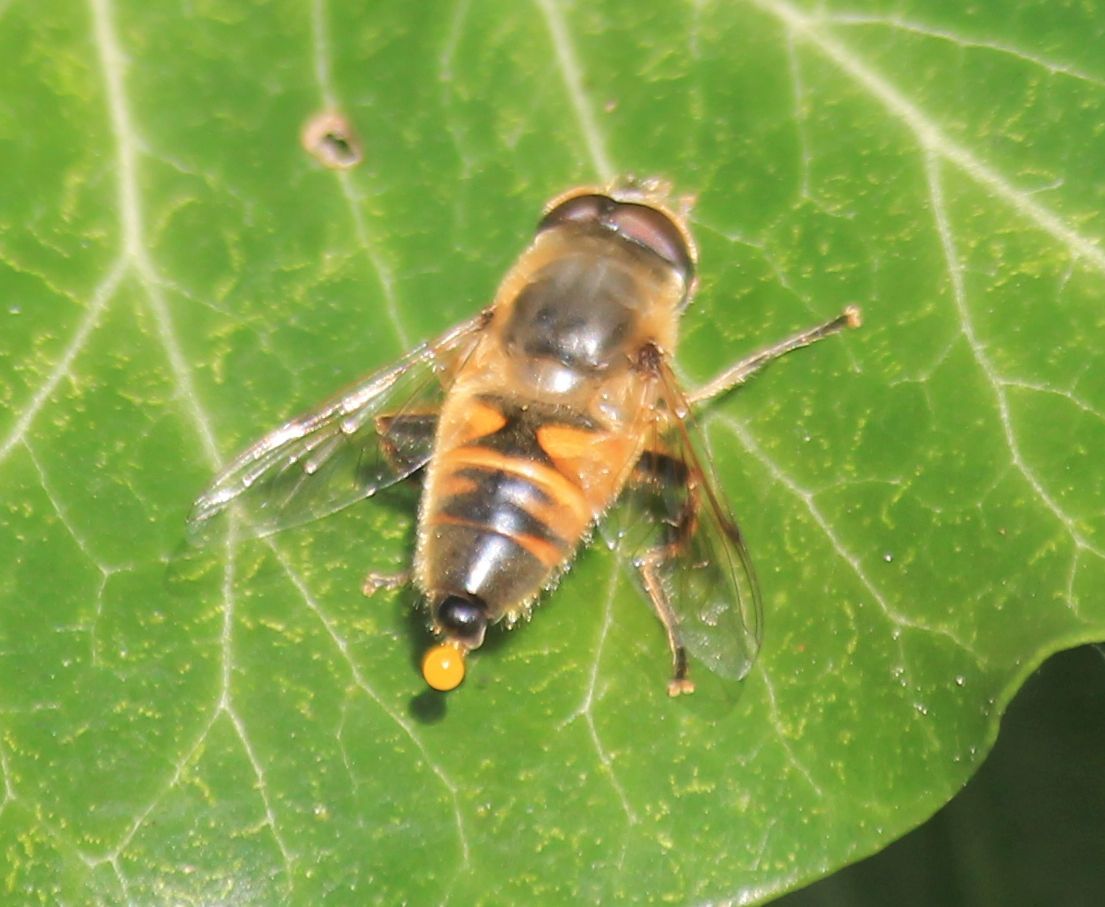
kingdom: Animalia
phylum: Arthropoda
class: Insecta
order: Diptera
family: Syrphidae
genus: Eristalis
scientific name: Eristalis tenax
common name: Drone fly
